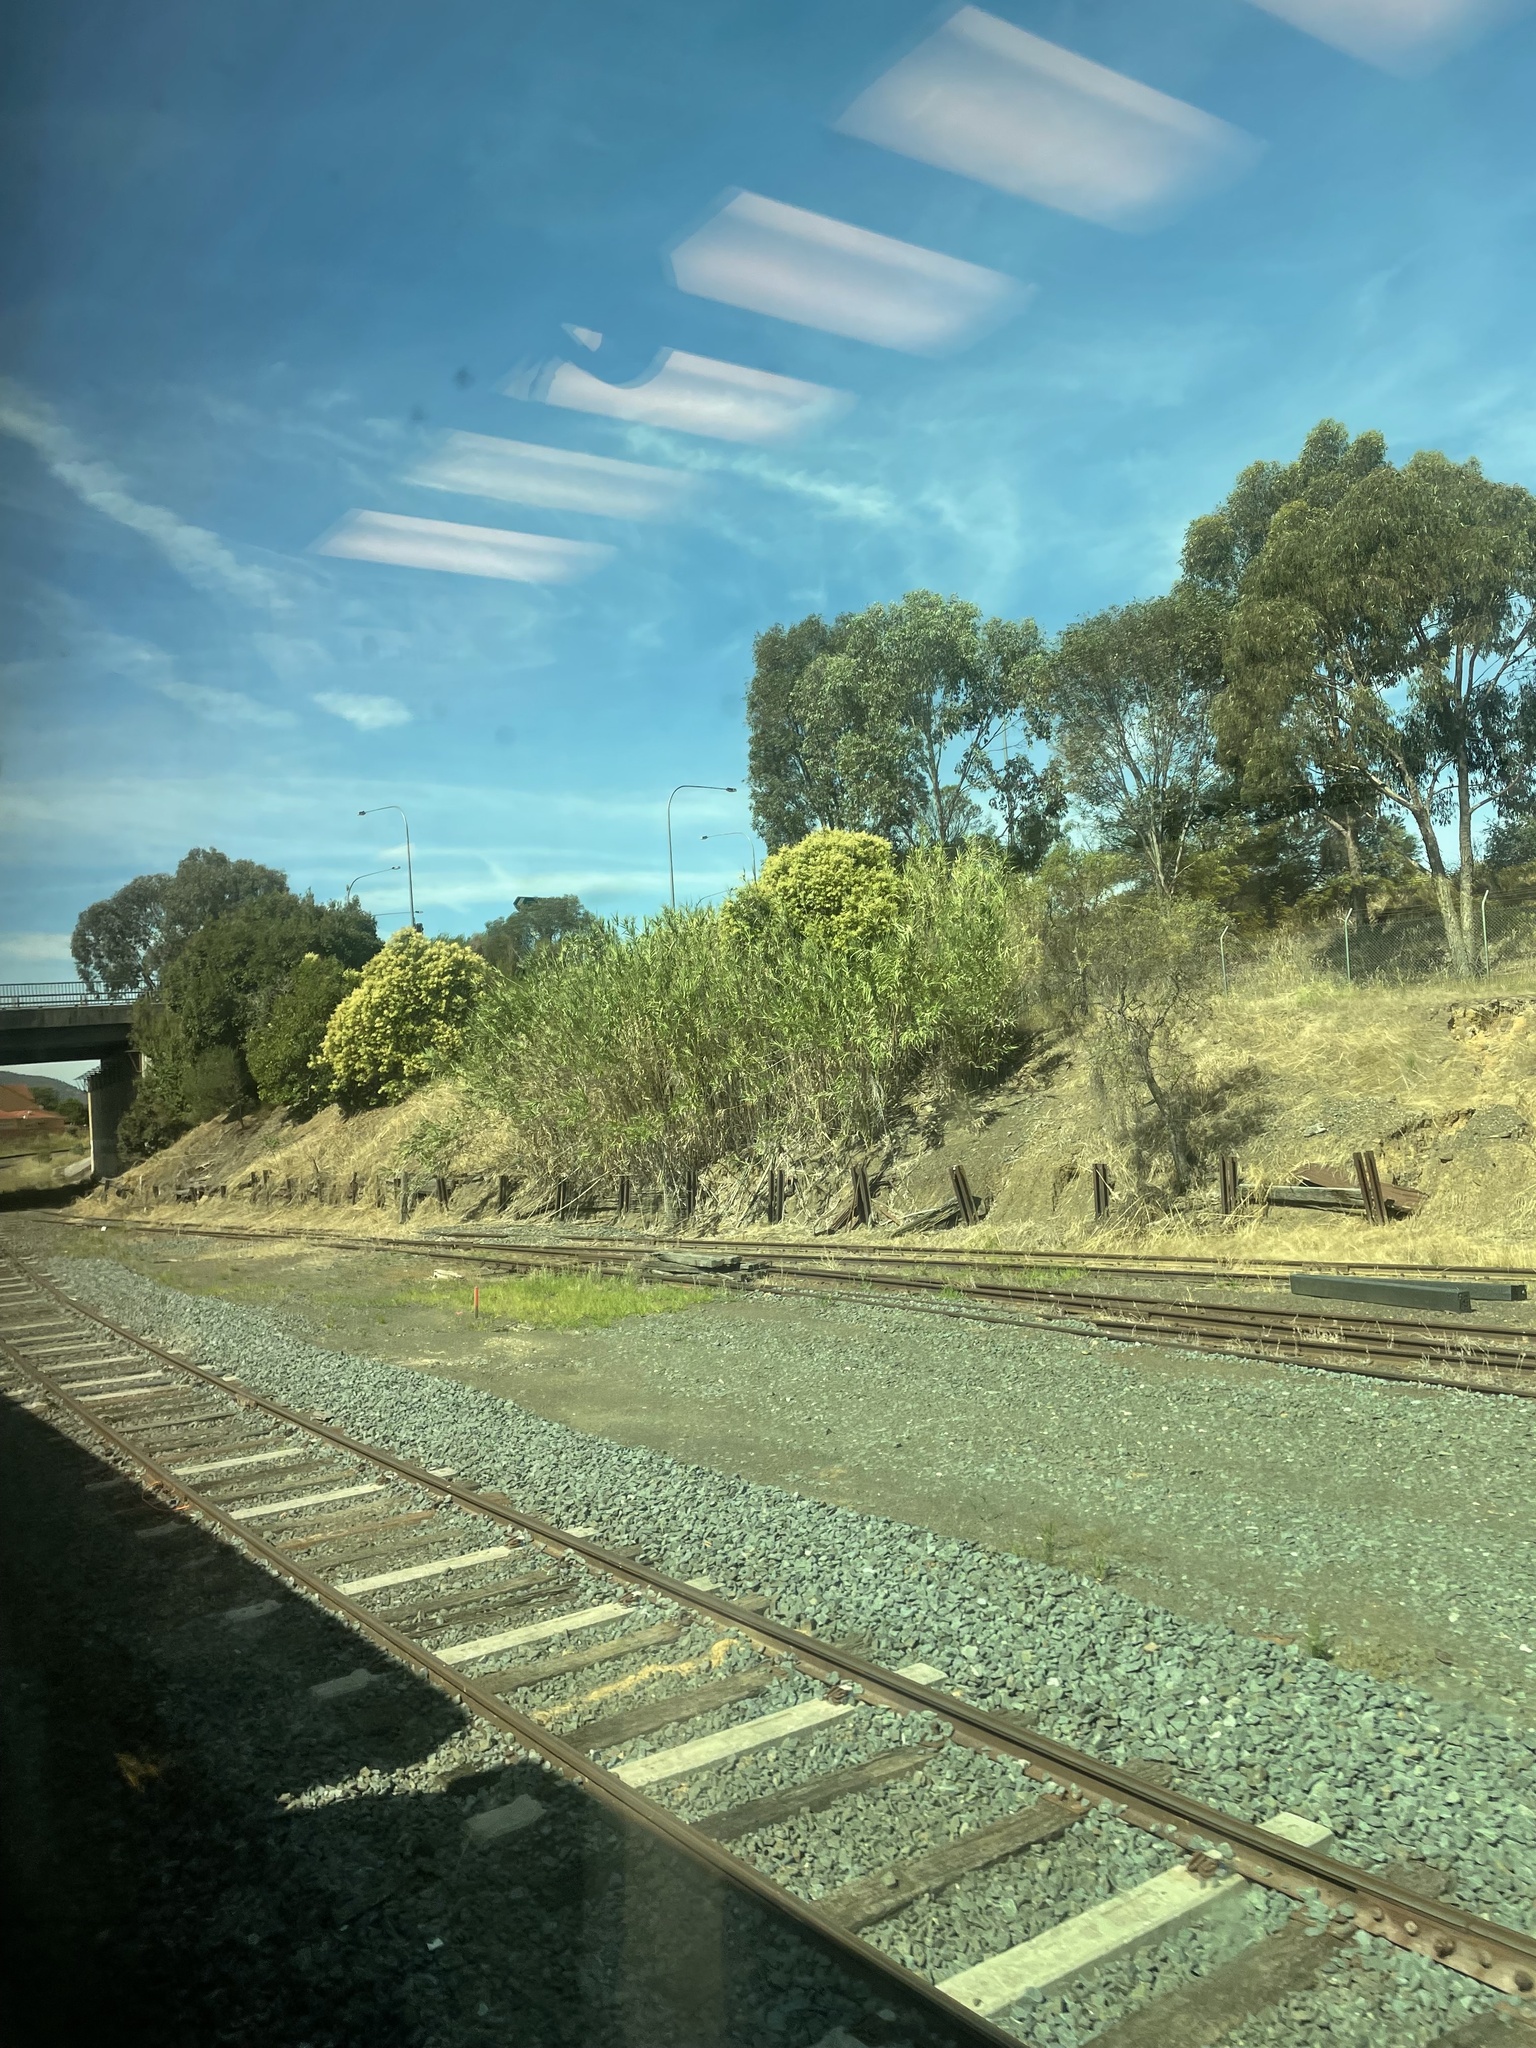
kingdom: Plantae
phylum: Tracheophyta
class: Liliopsida
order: Poales
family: Poaceae
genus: Arundo
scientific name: Arundo donax
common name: Giant reed
